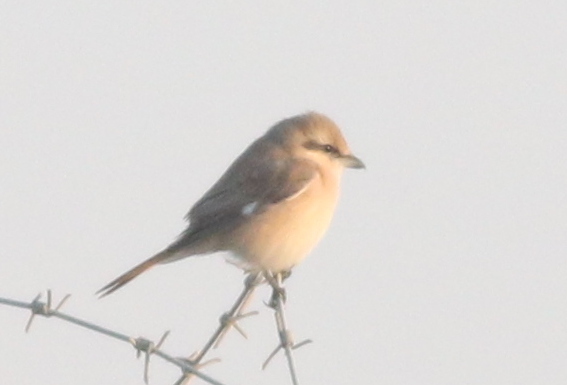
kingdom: Animalia
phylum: Chordata
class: Aves
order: Passeriformes
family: Laniidae
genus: Lanius
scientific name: Lanius isabellinus
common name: Isabelline shrike
